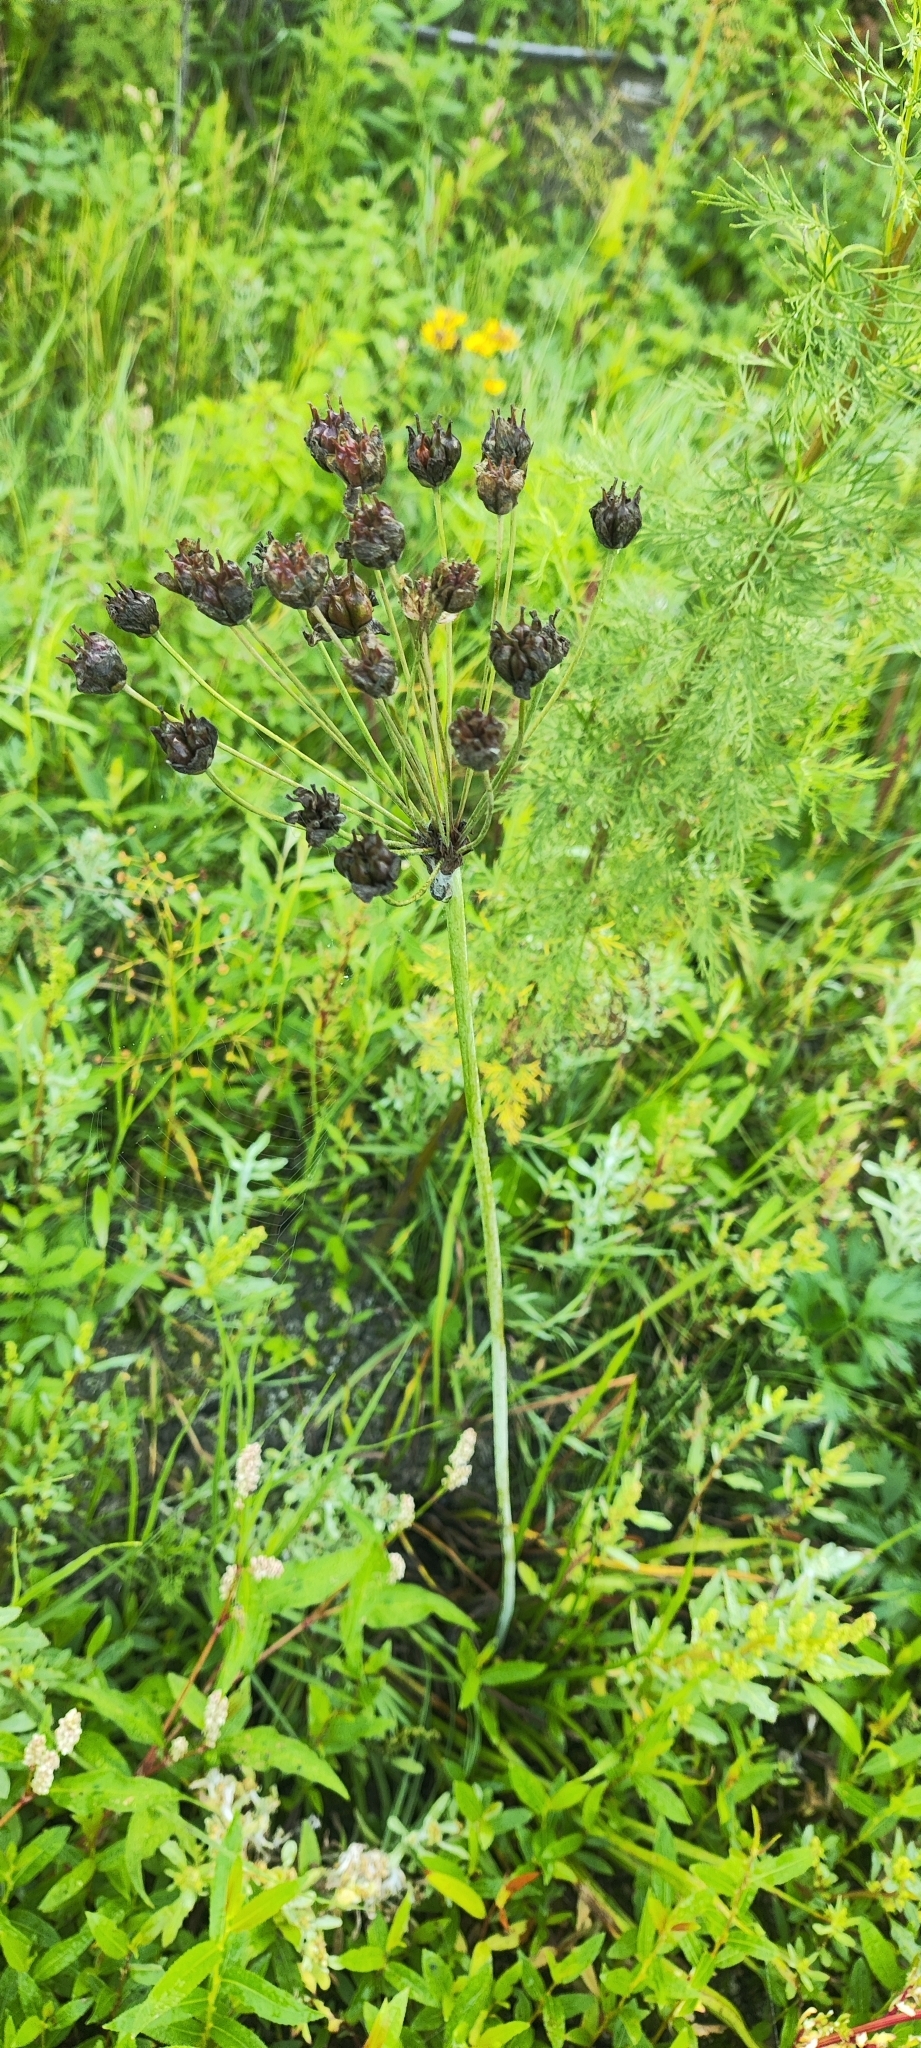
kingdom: Plantae
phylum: Tracheophyta
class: Liliopsida
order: Alismatales
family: Butomaceae
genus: Butomus
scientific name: Butomus umbellatus
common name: Flowering-rush
